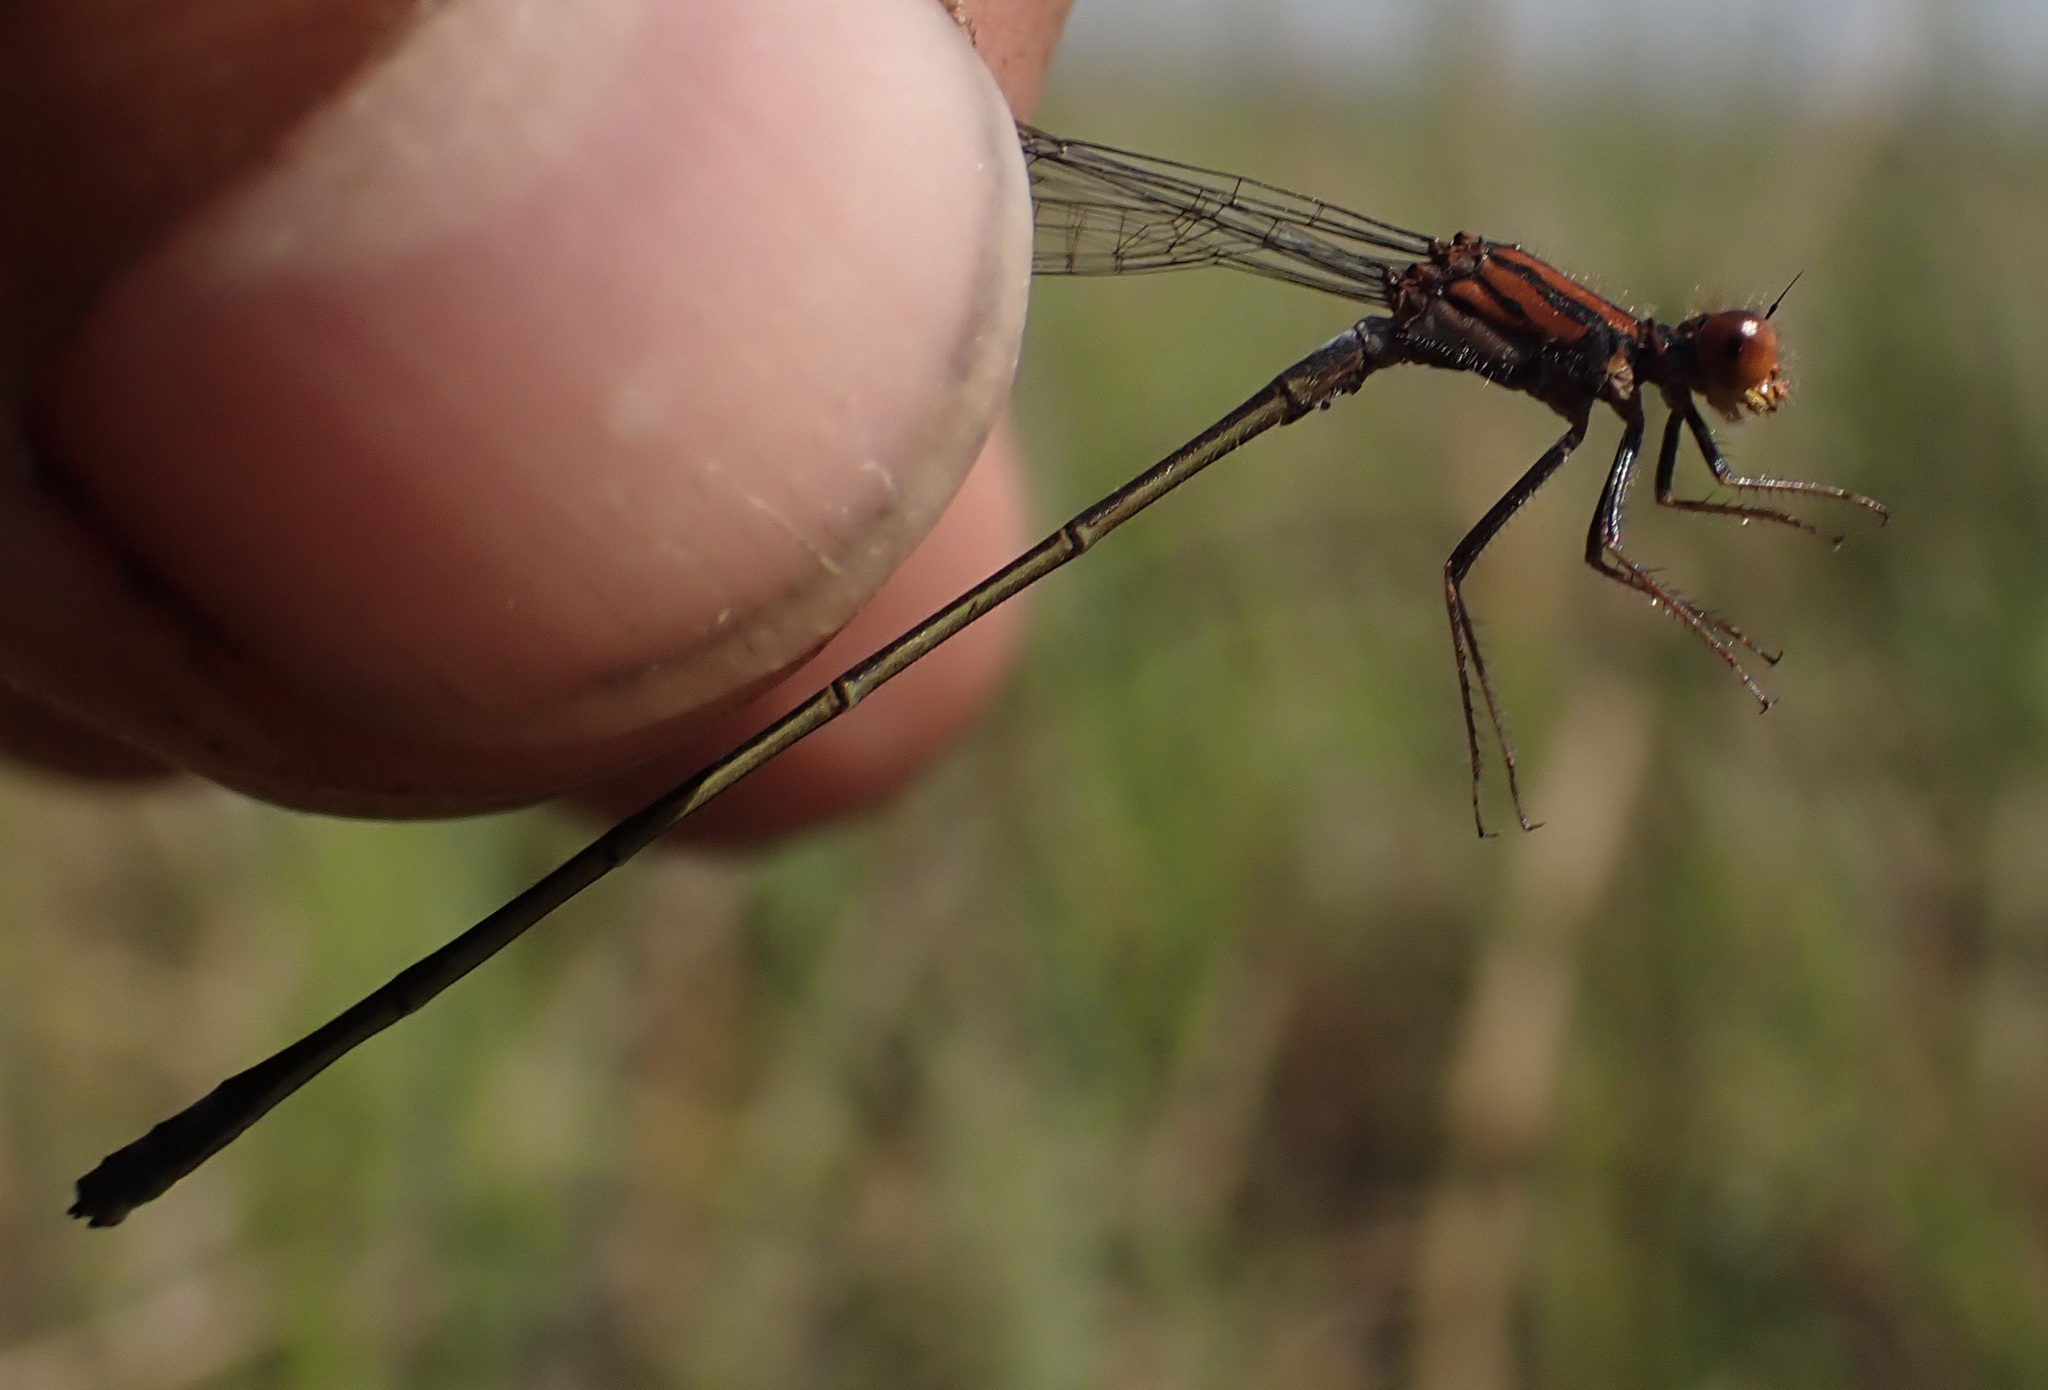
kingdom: Animalia
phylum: Arthropoda
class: Insecta
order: Odonata
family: Coenagrionidae
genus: Pseudagrion
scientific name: Pseudagrion rufostigma
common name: Dark sprite
